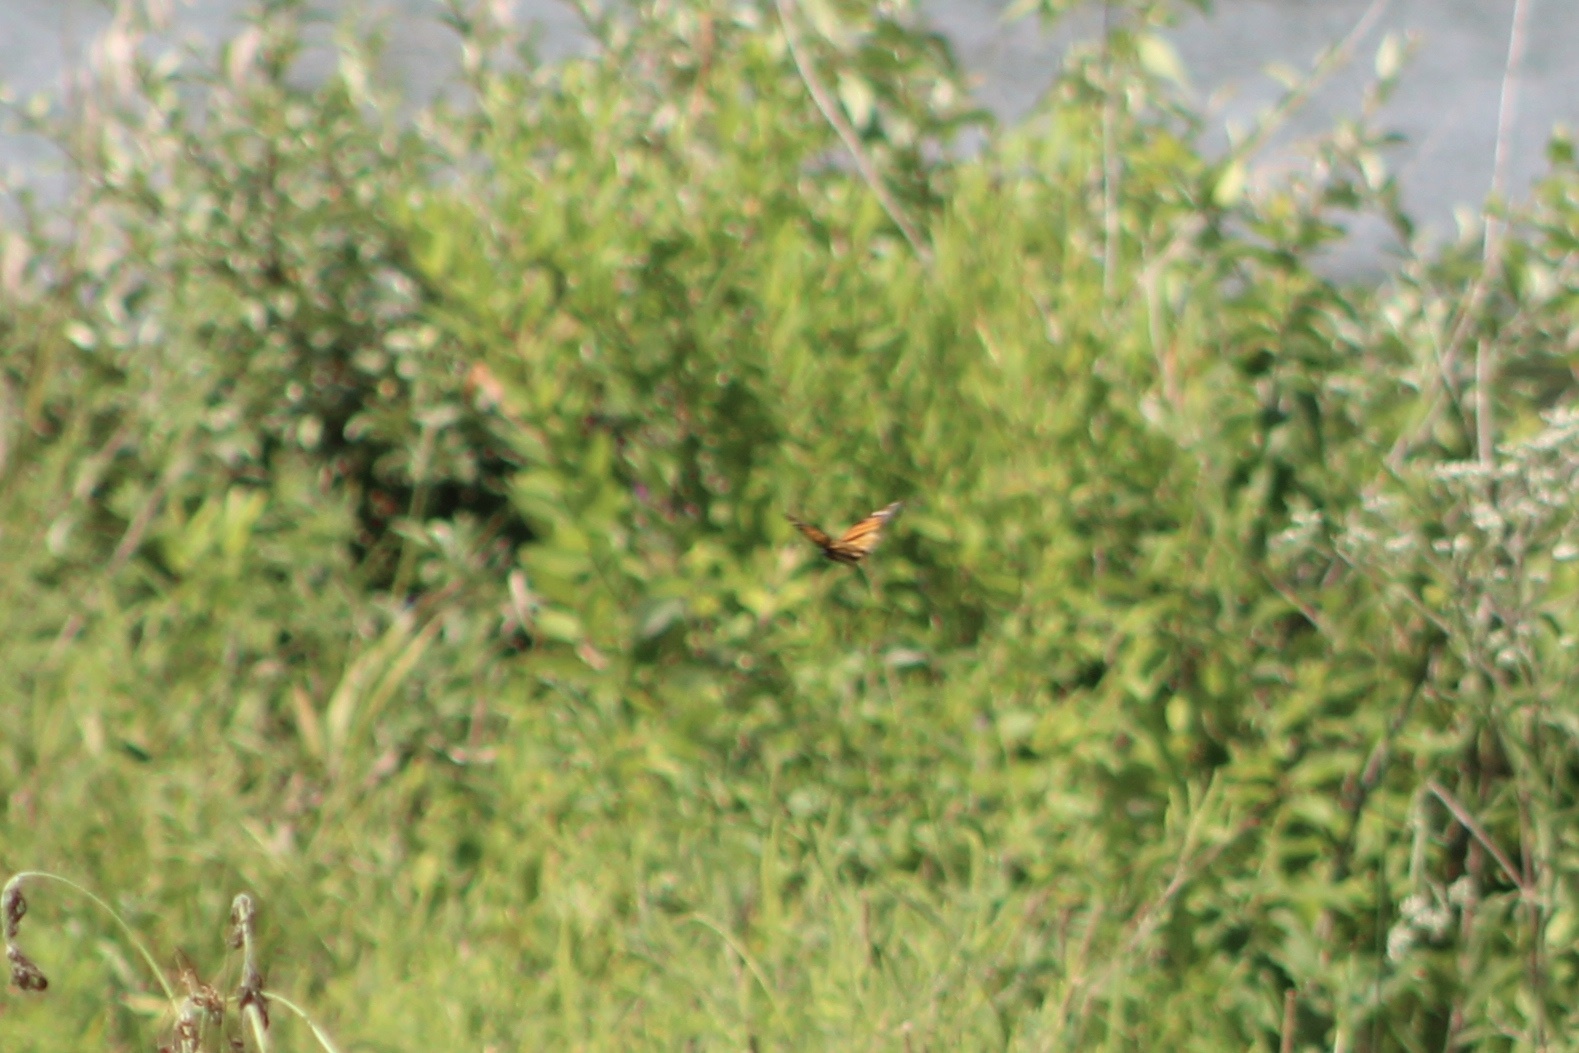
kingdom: Animalia
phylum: Arthropoda
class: Insecta
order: Lepidoptera
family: Nymphalidae
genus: Danaus
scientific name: Danaus plexippus
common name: Monarch
